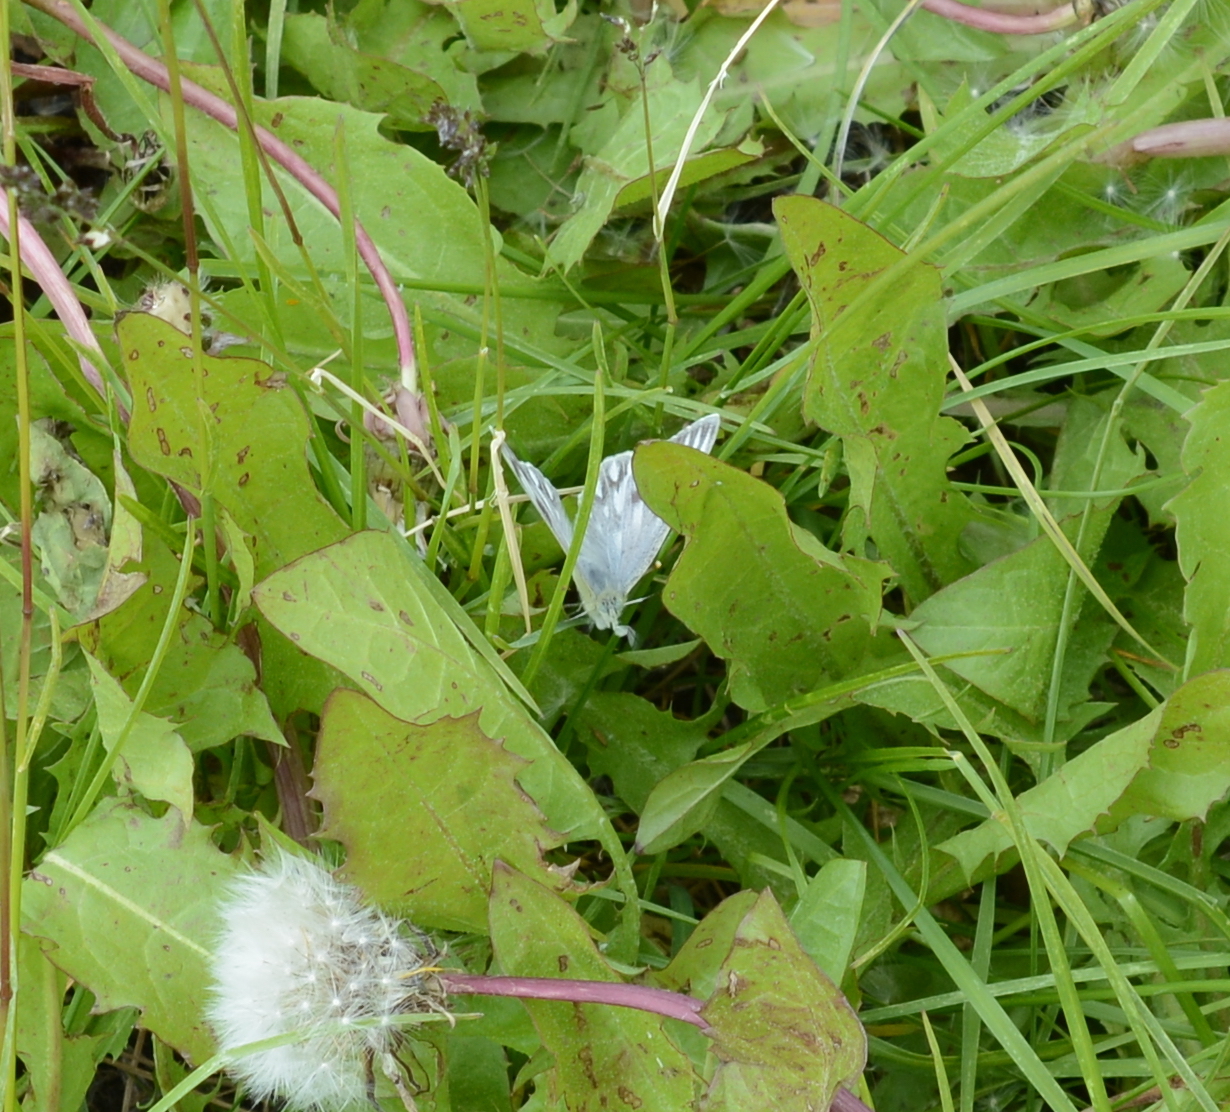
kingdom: Animalia
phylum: Arthropoda
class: Insecta
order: Lepidoptera
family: Pieridae
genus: Pontia
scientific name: Pontia occidentalis
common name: Western white
